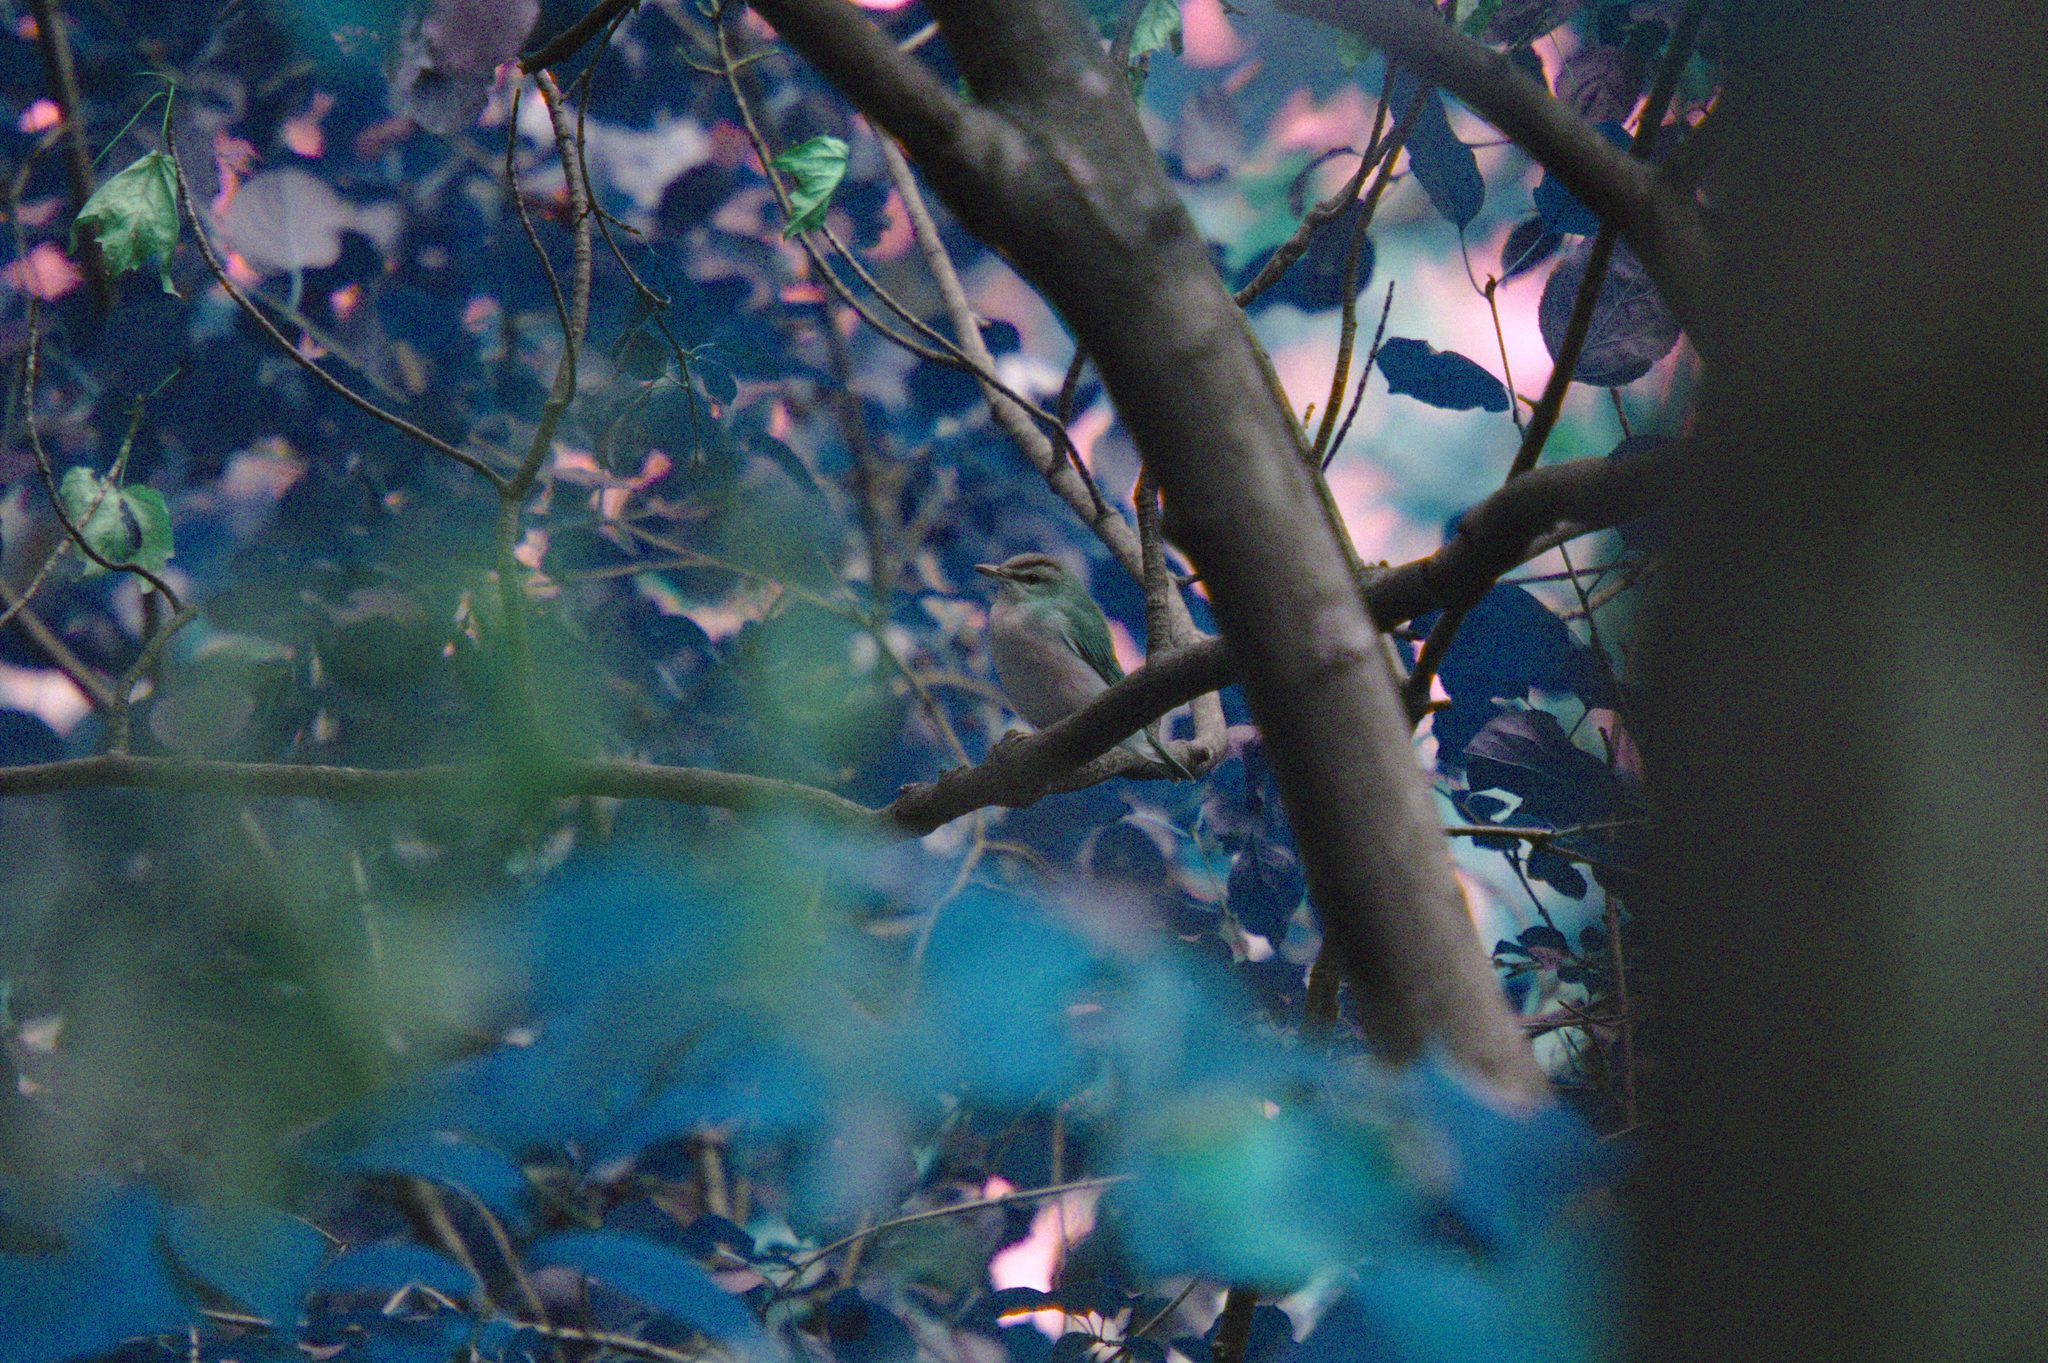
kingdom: Animalia
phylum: Chordata
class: Aves
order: Passeriformes
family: Vireonidae
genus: Vireo
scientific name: Vireo olivaceus
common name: Red-eyed vireo
